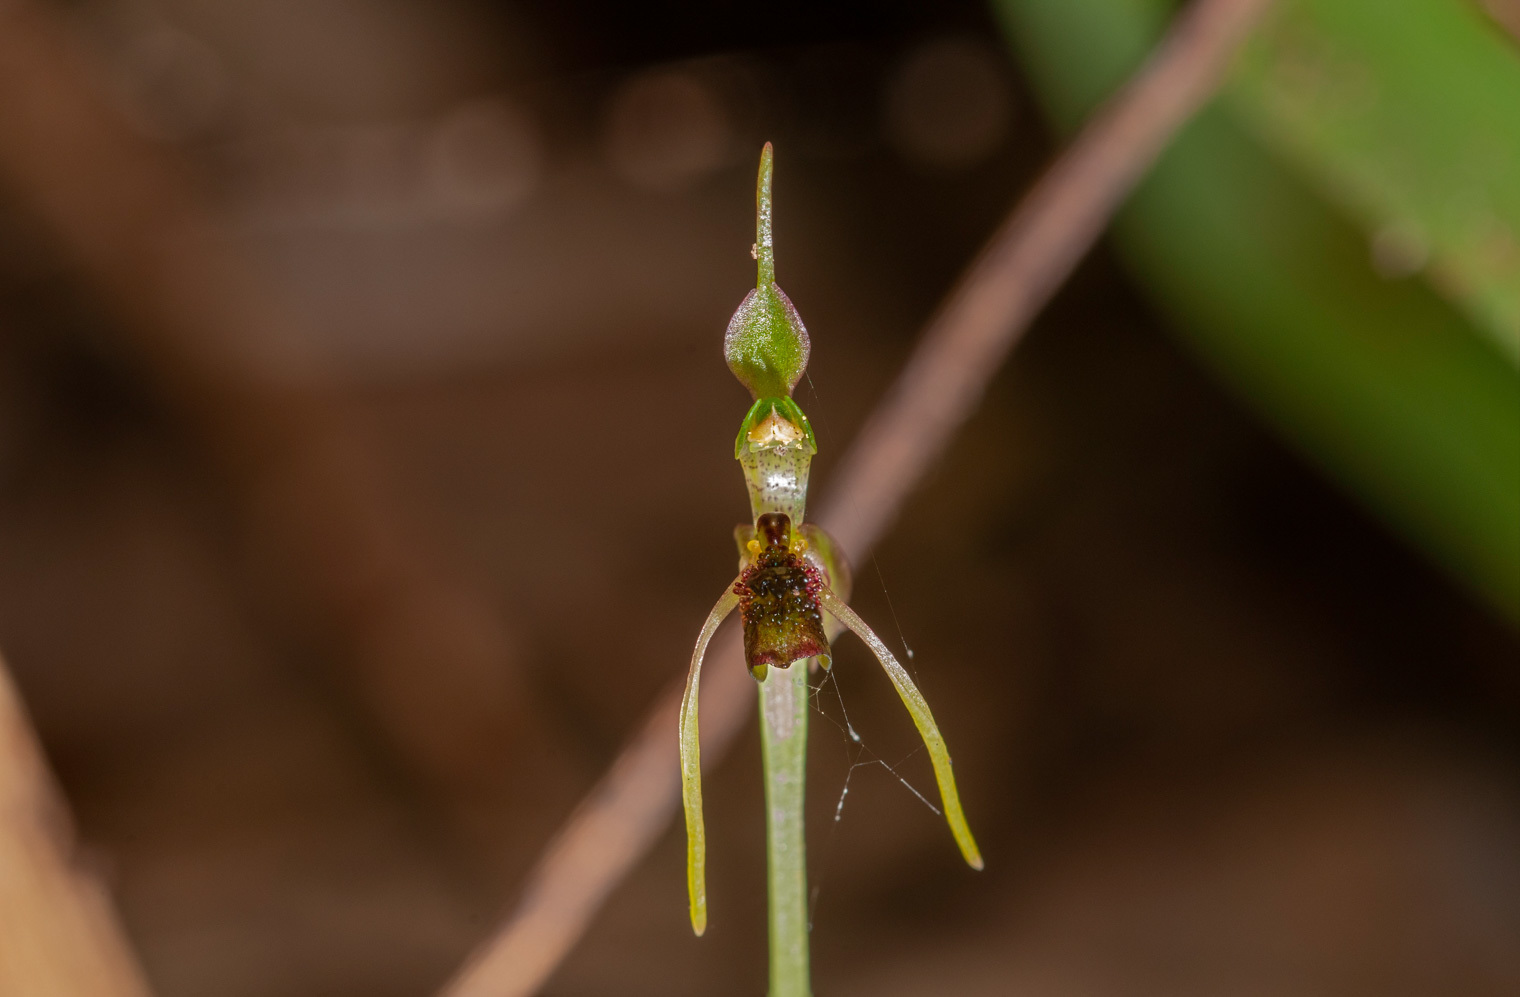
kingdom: Plantae
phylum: Tracheophyta
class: Liliopsida
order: Asparagales
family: Orchidaceae
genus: Chiloglottis
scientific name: Chiloglottis diphylla
